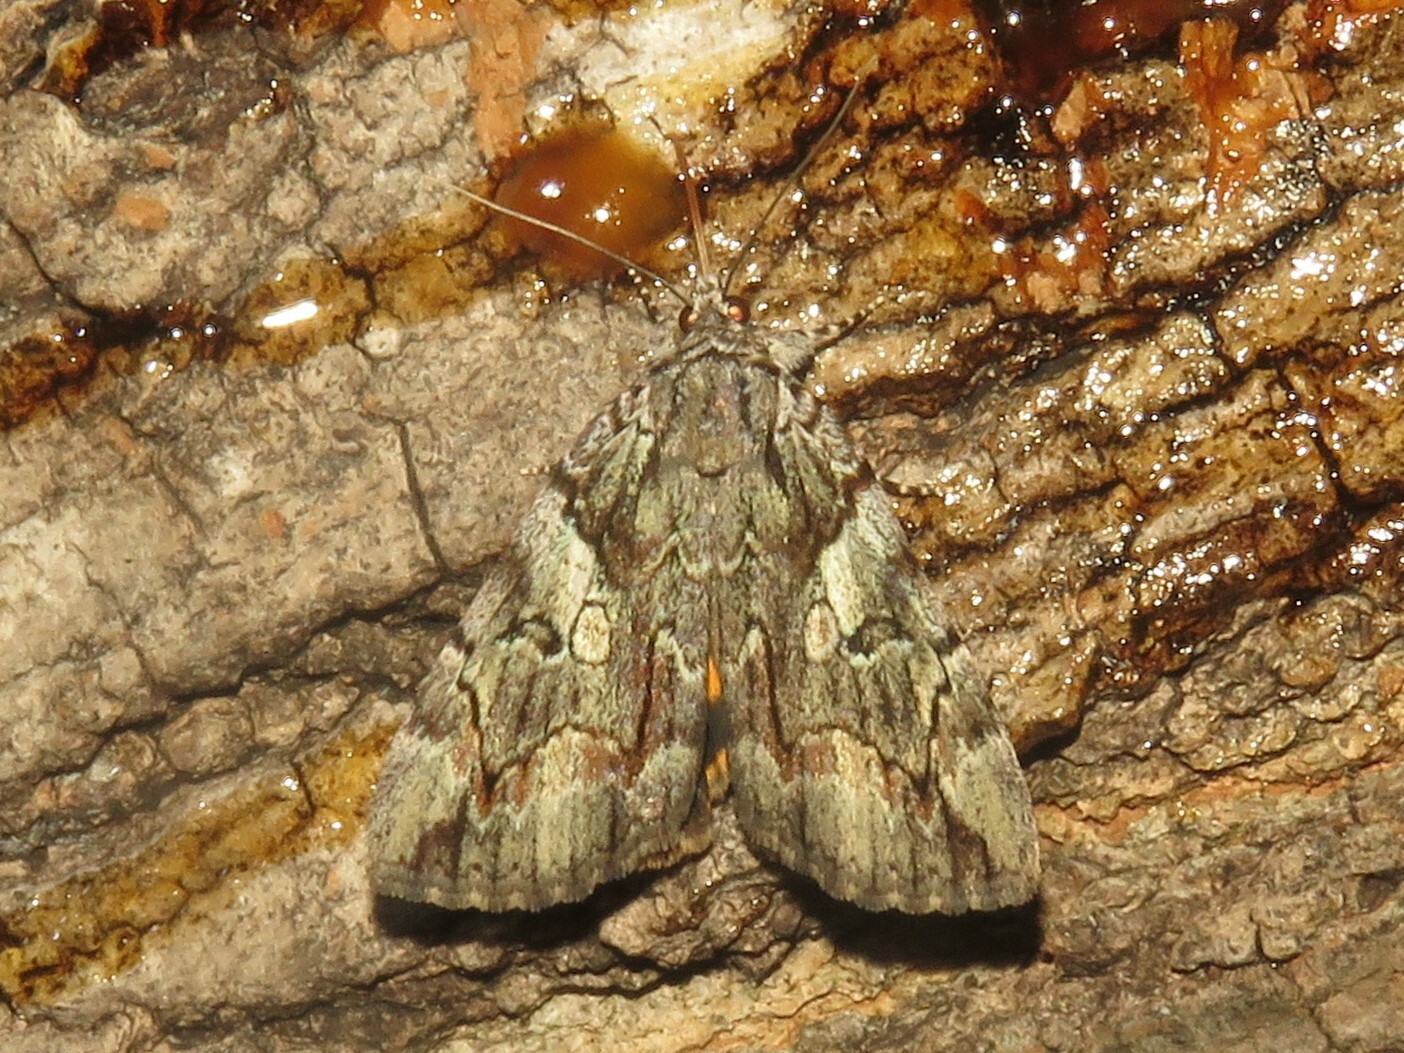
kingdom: Animalia
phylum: Arthropoda
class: Insecta
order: Lepidoptera
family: Erebidae
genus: Catocala
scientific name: Catocala mira
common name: Wonderful underwing
